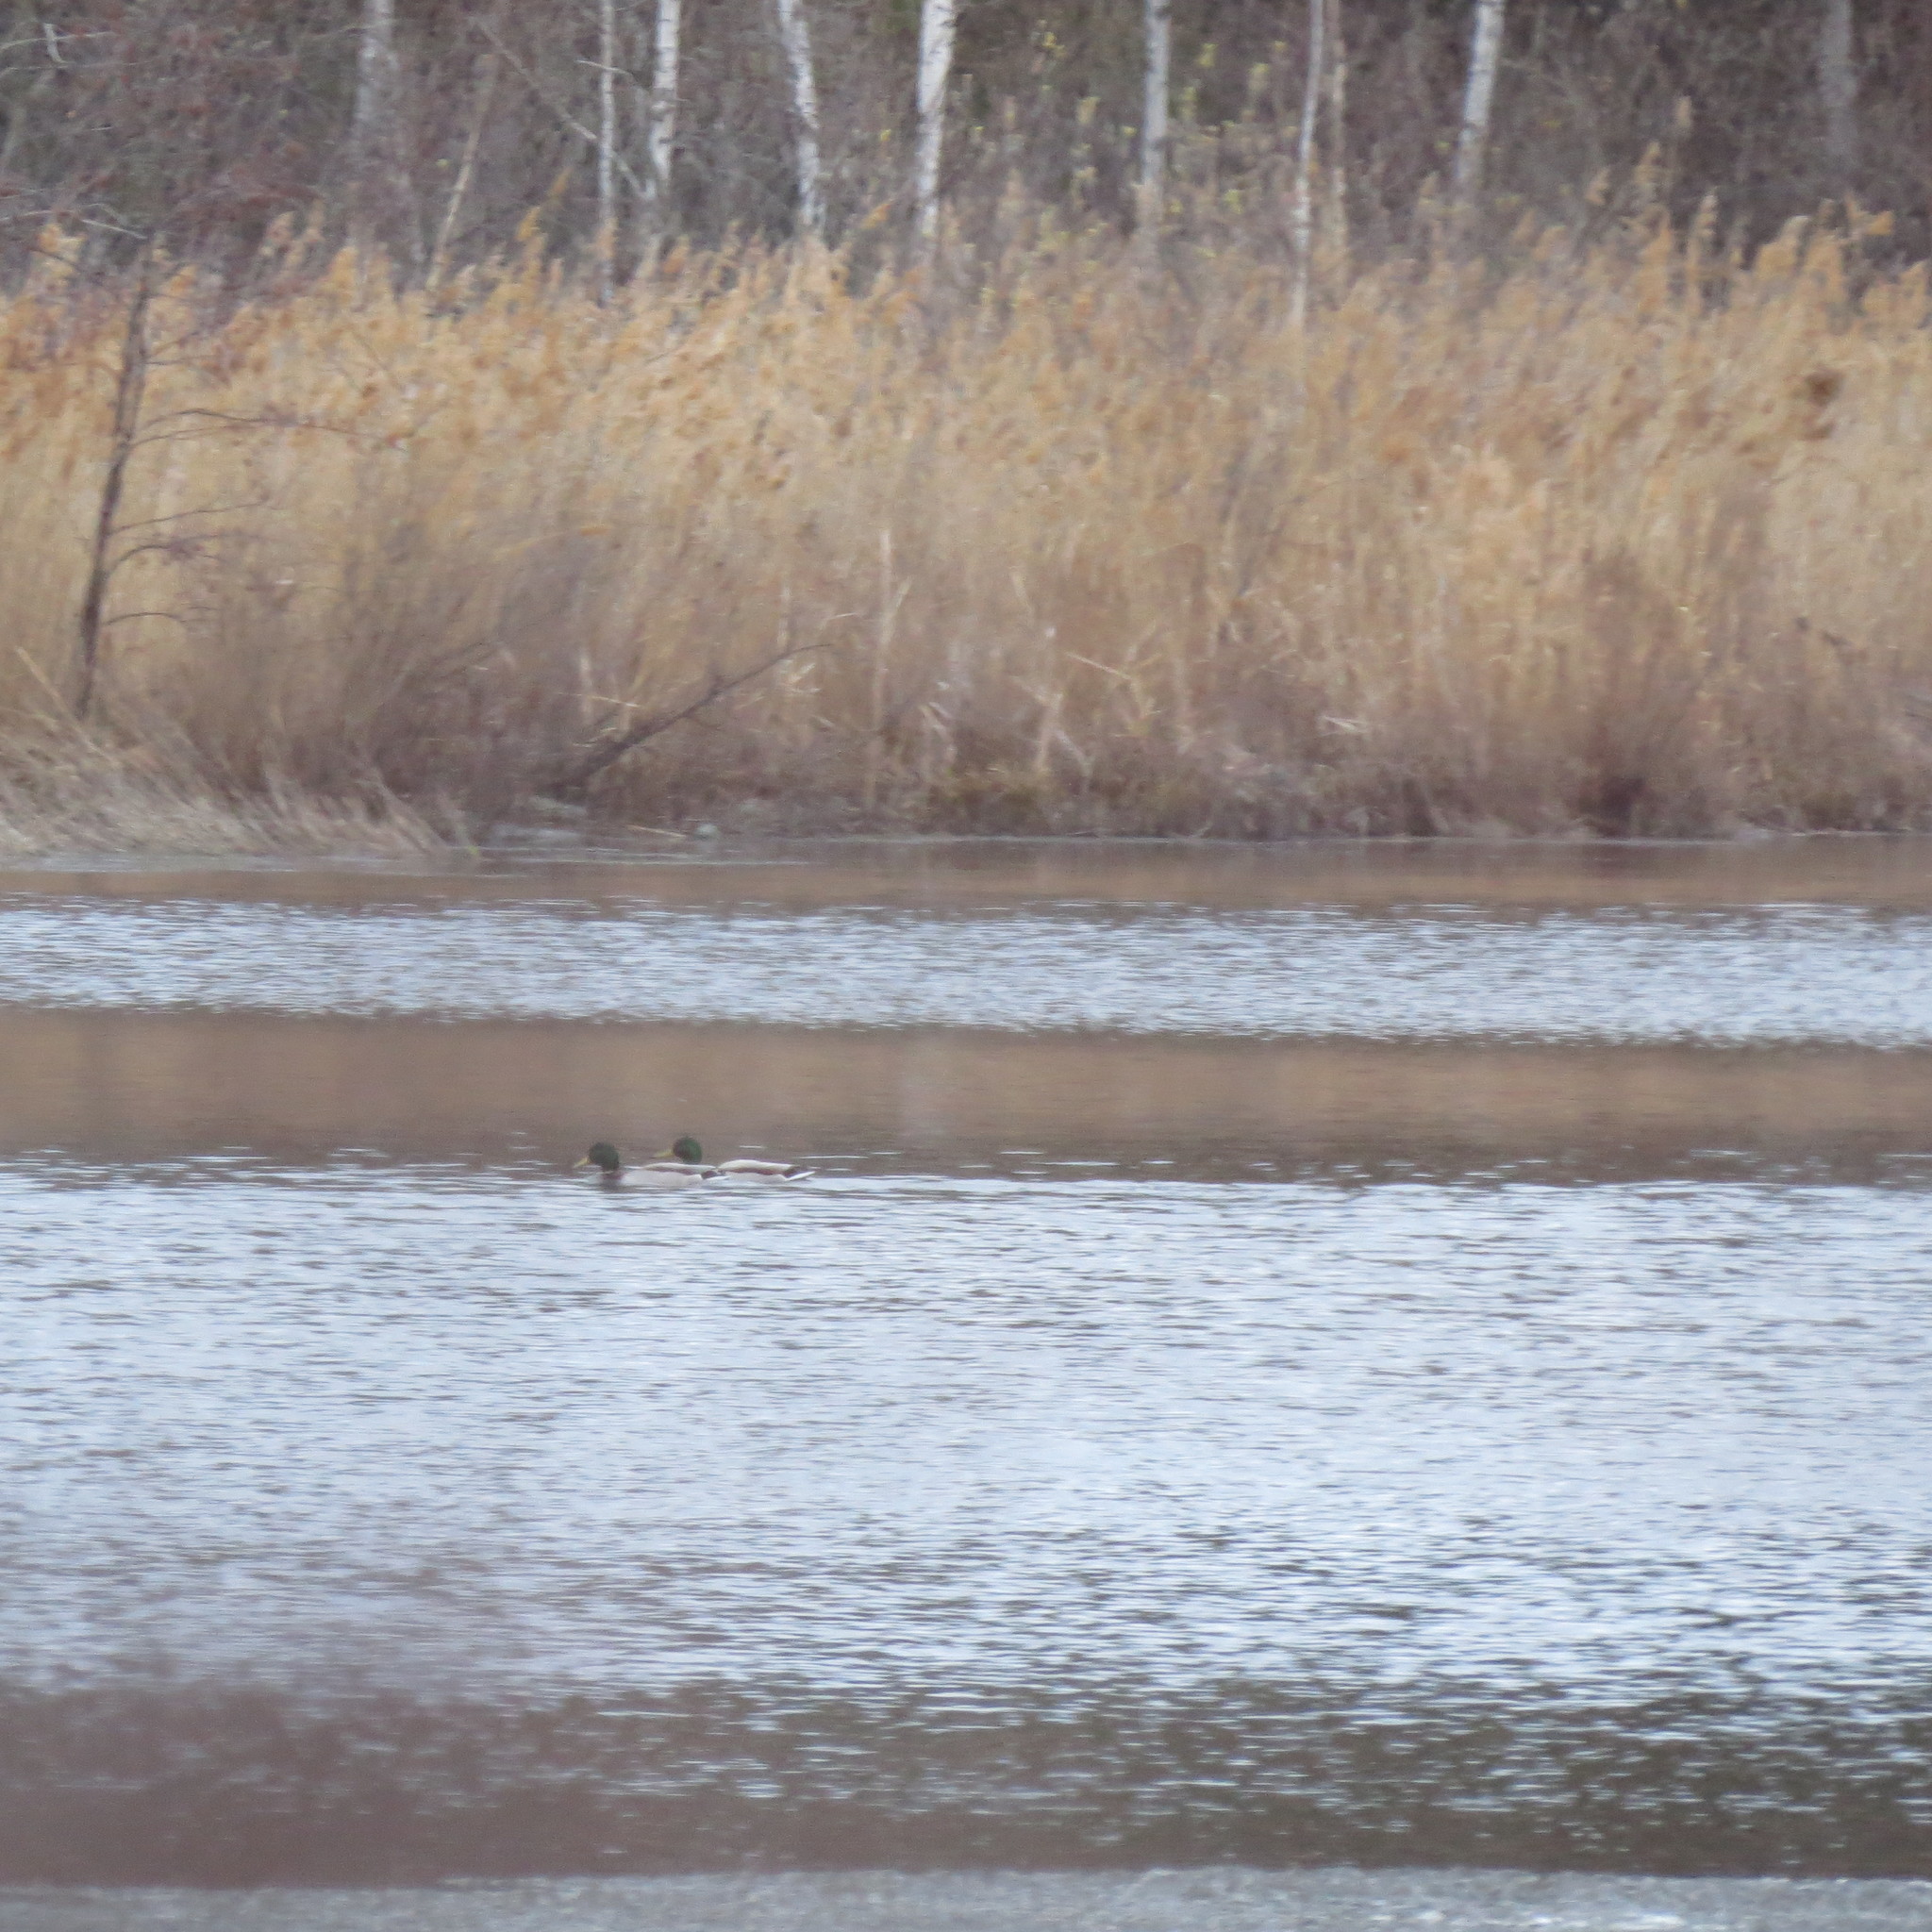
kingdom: Animalia
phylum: Chordata
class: Aves
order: Anseriformes
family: Anatidae
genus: Anas
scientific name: Anas platyrhynchos
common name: Mallard
